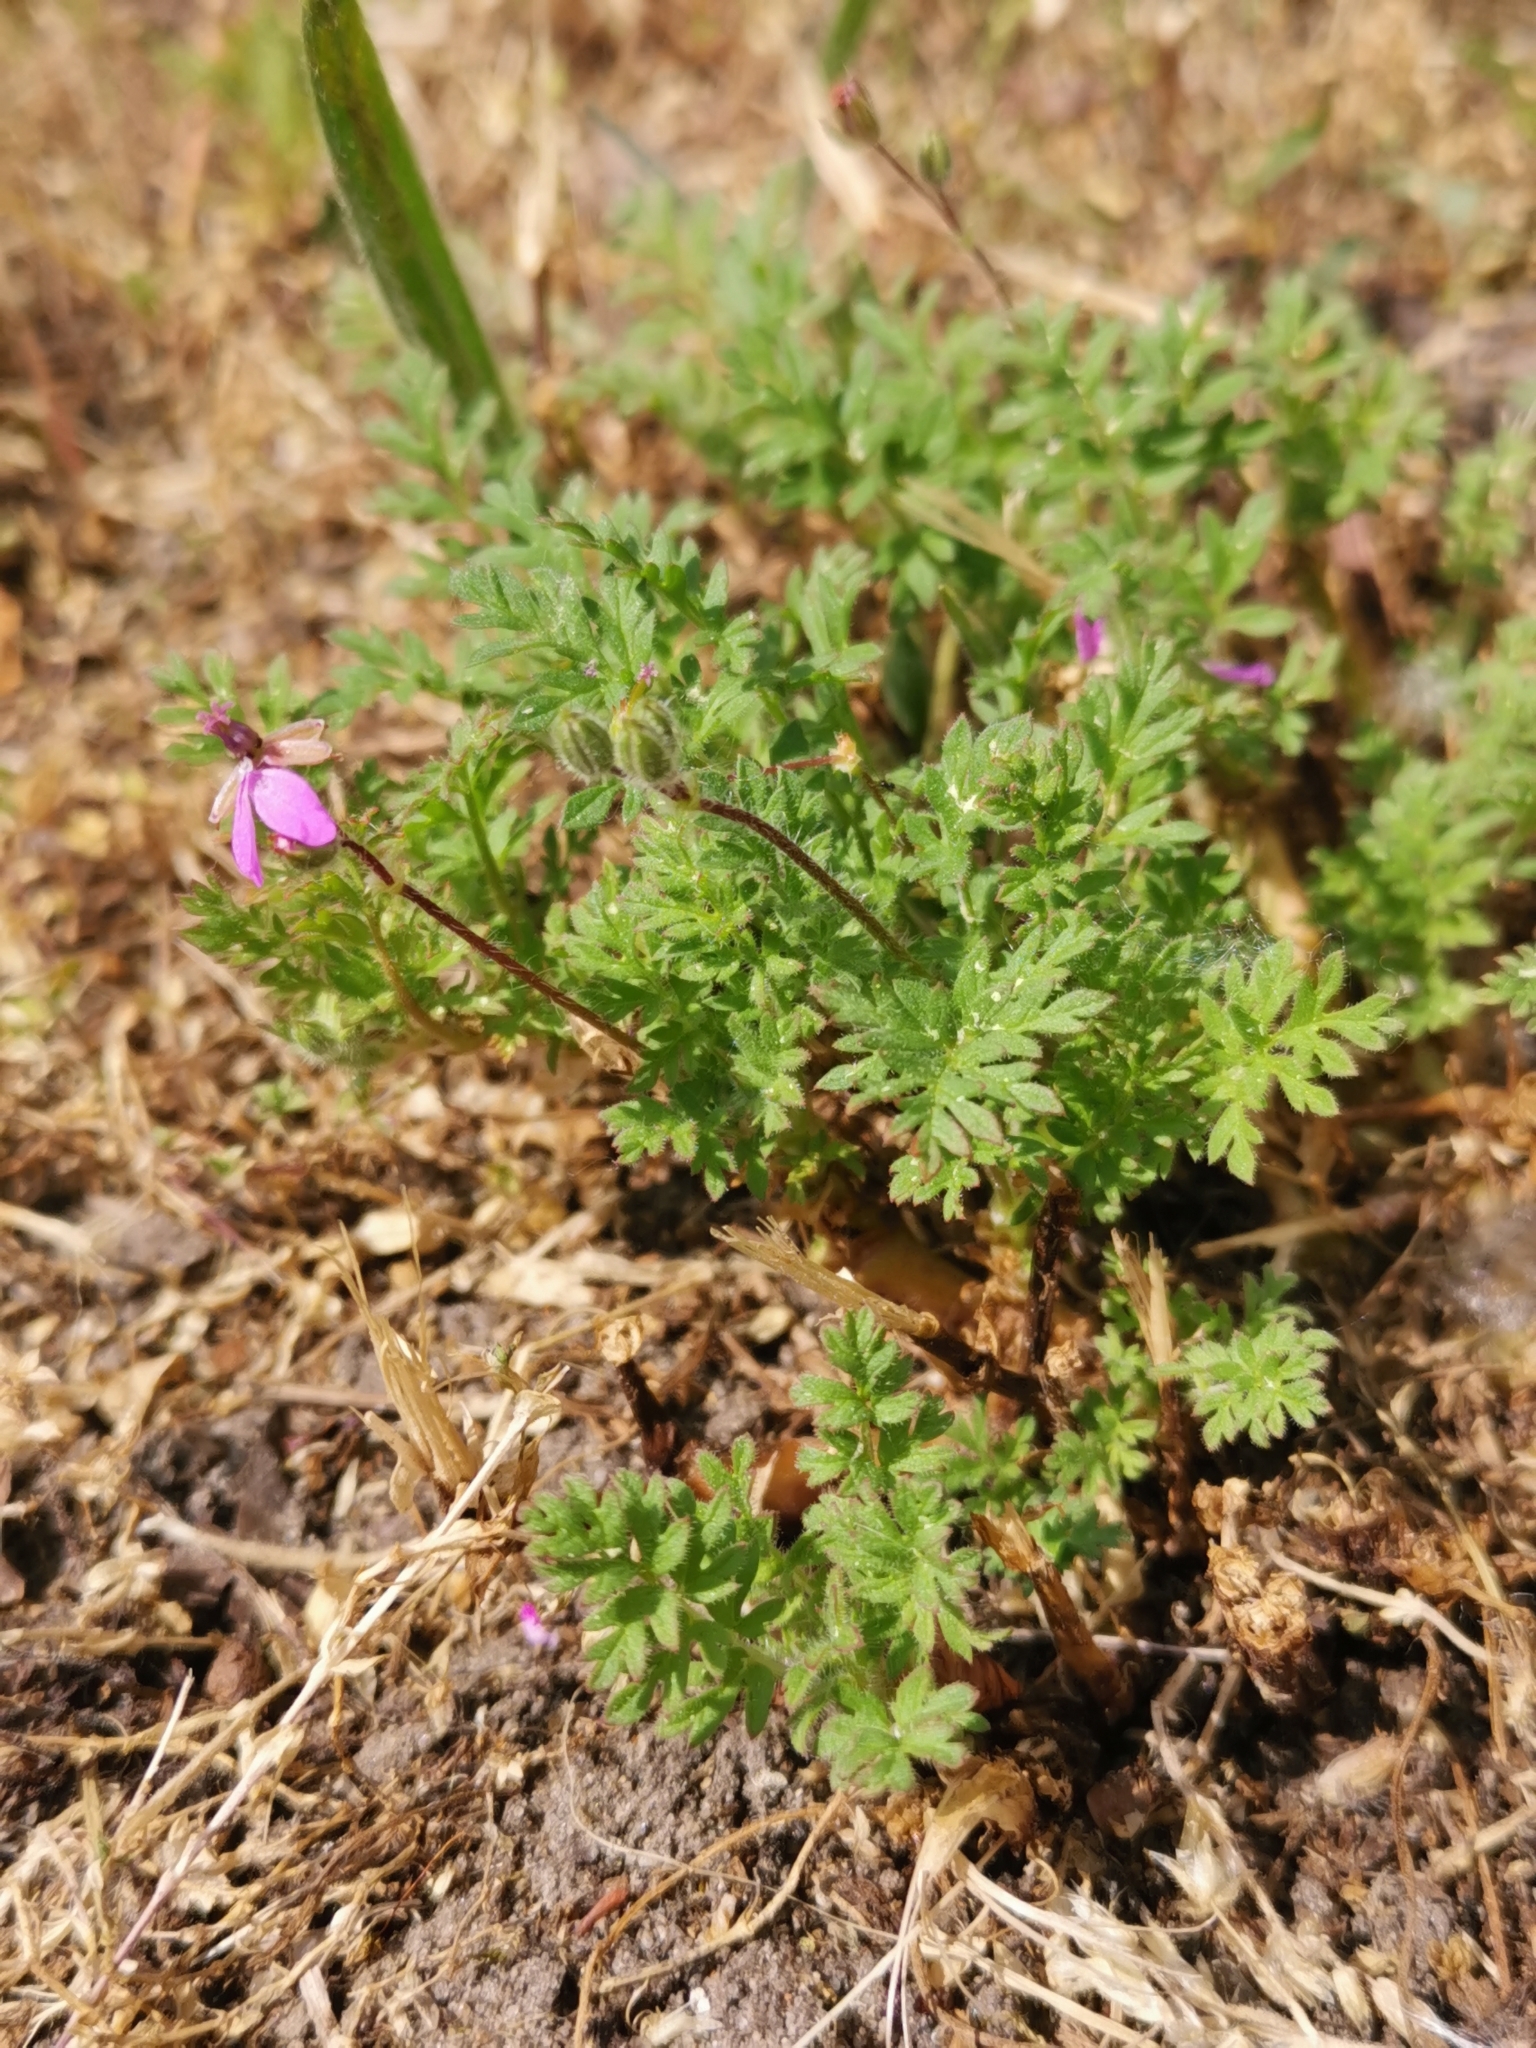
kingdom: Plantae
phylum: Tracheophyta
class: Magnoliopsida
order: Geraniales
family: Geraniaceae
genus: Erodium
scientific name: Erodium cicutarium
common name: Common stork's-bill
